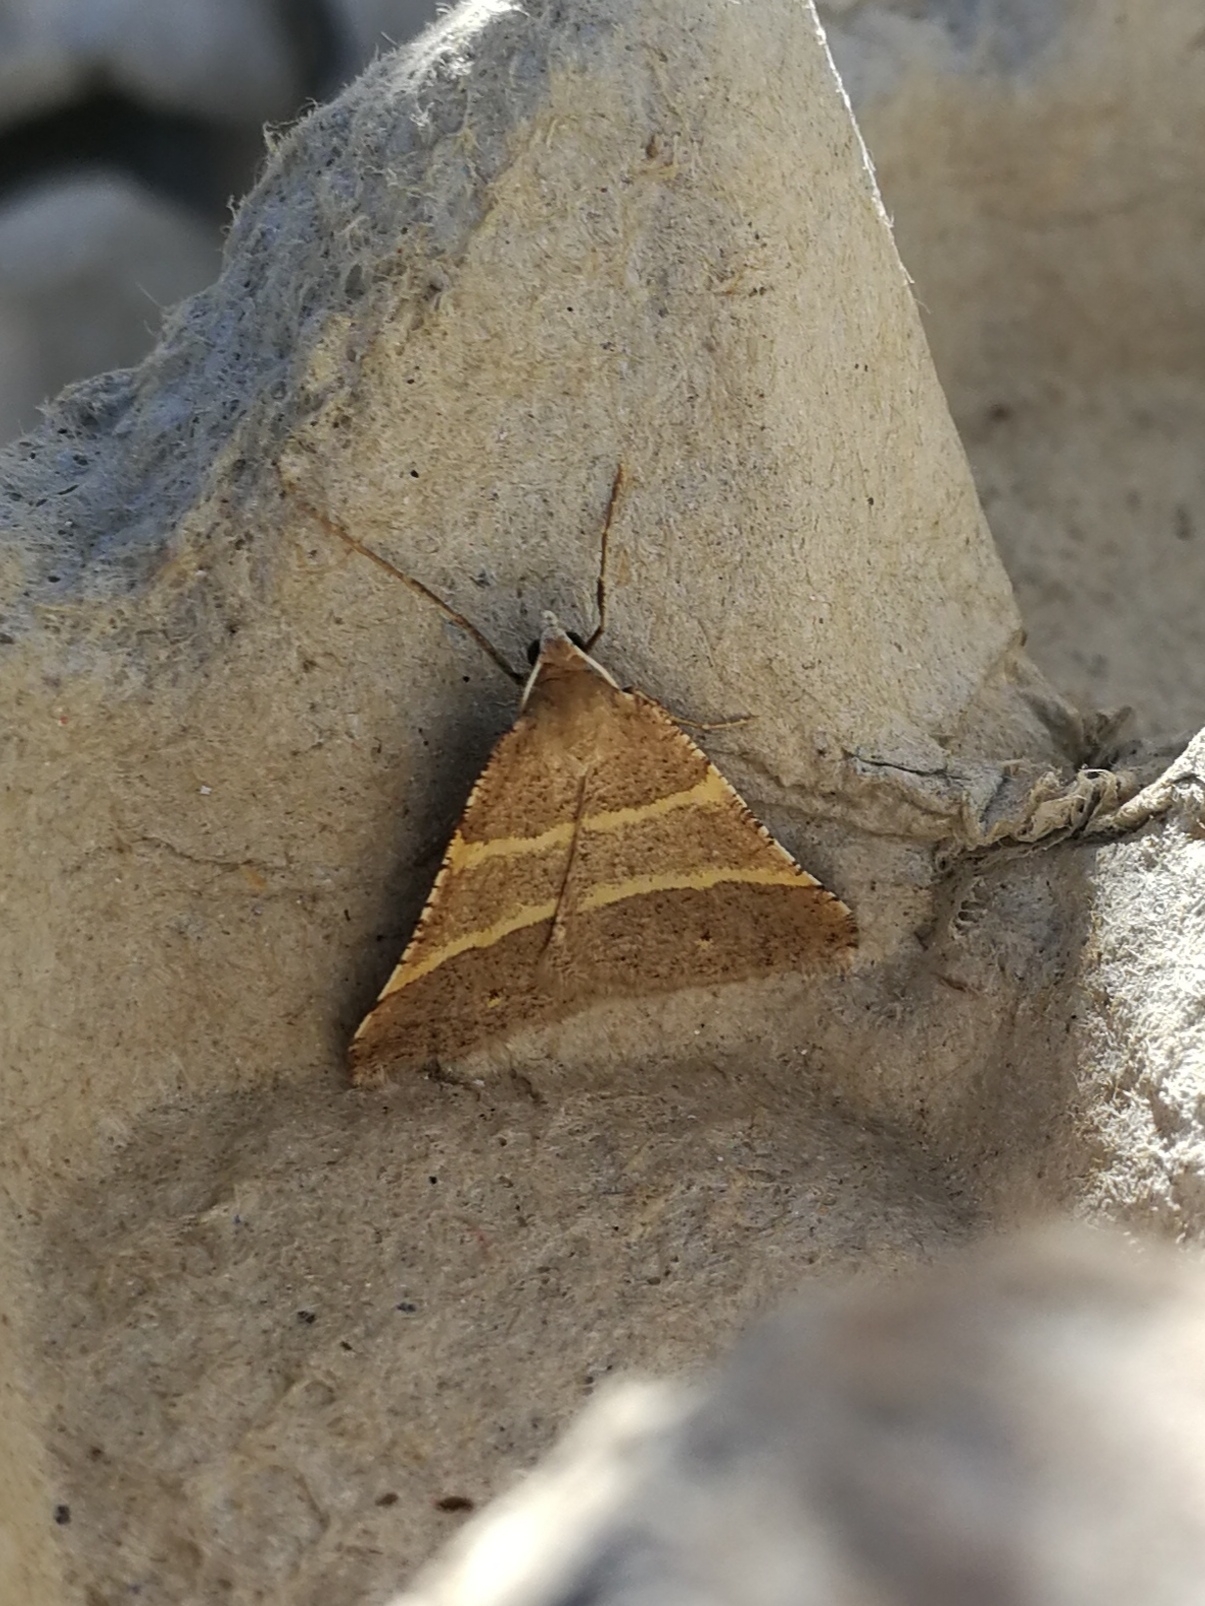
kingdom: Animalia
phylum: Arthropoda
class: Insecta
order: Lepidoptera
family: Pterophoridae
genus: Pterophorus
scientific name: Pterophorus Petrophora narbonea
